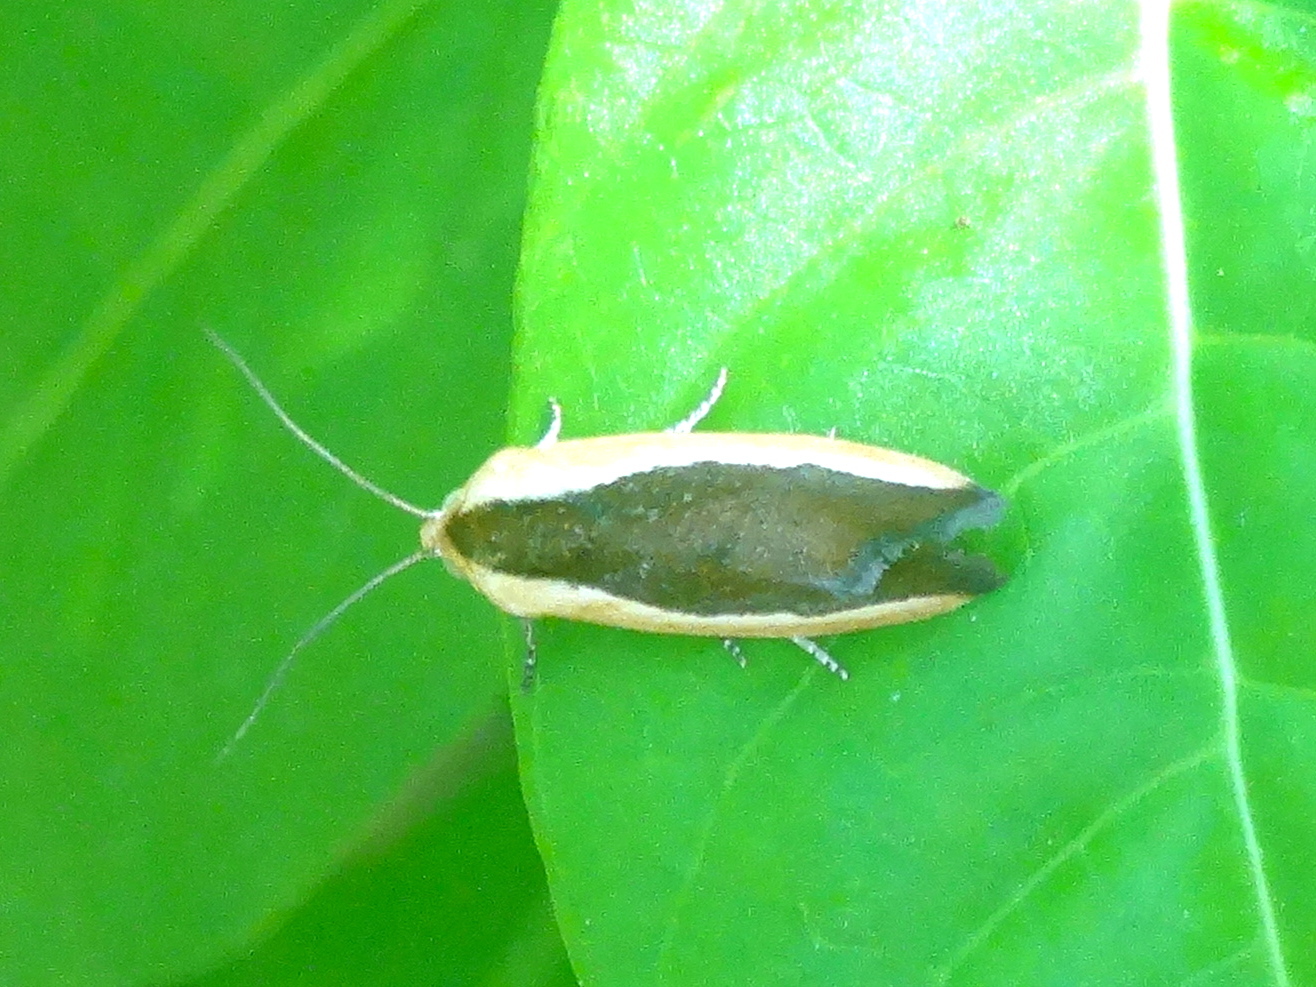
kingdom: Animalia
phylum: Arthropoda
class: Insecta
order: Lepidoptera
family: Noctuidae
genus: Acontia
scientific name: Acontia exigua
